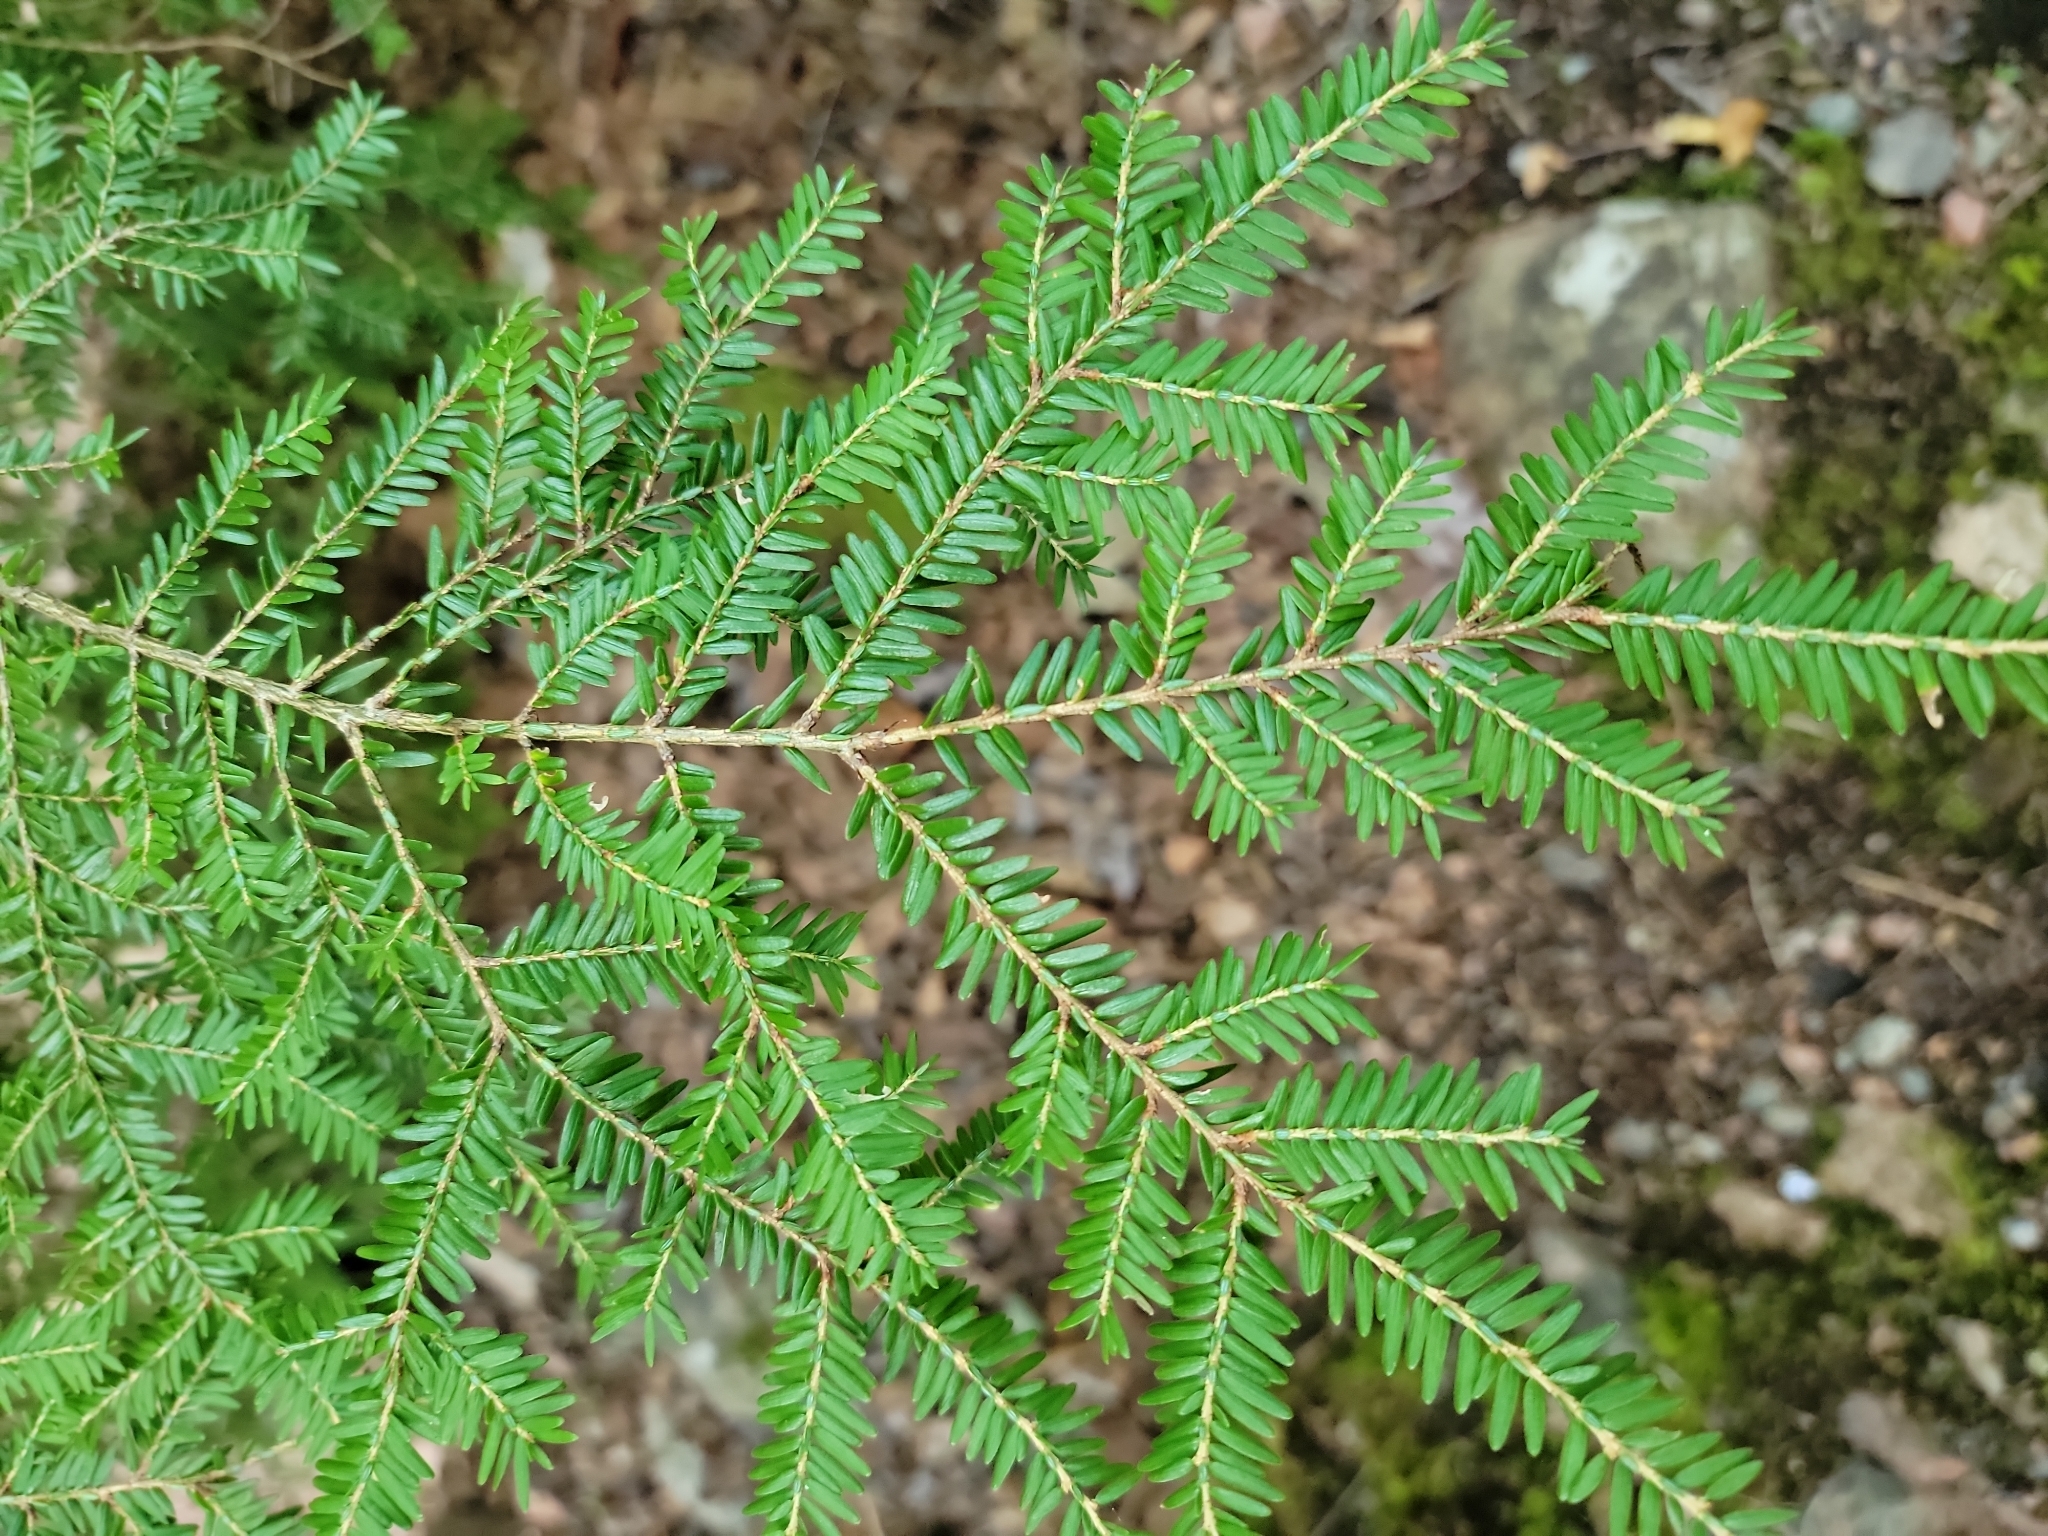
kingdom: Plantae
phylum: Tracheophyta
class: Pinopsida
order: Pinales
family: Pinaceae
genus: Tsuga
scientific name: Tsuga canadensis
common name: Eastern hemlock
